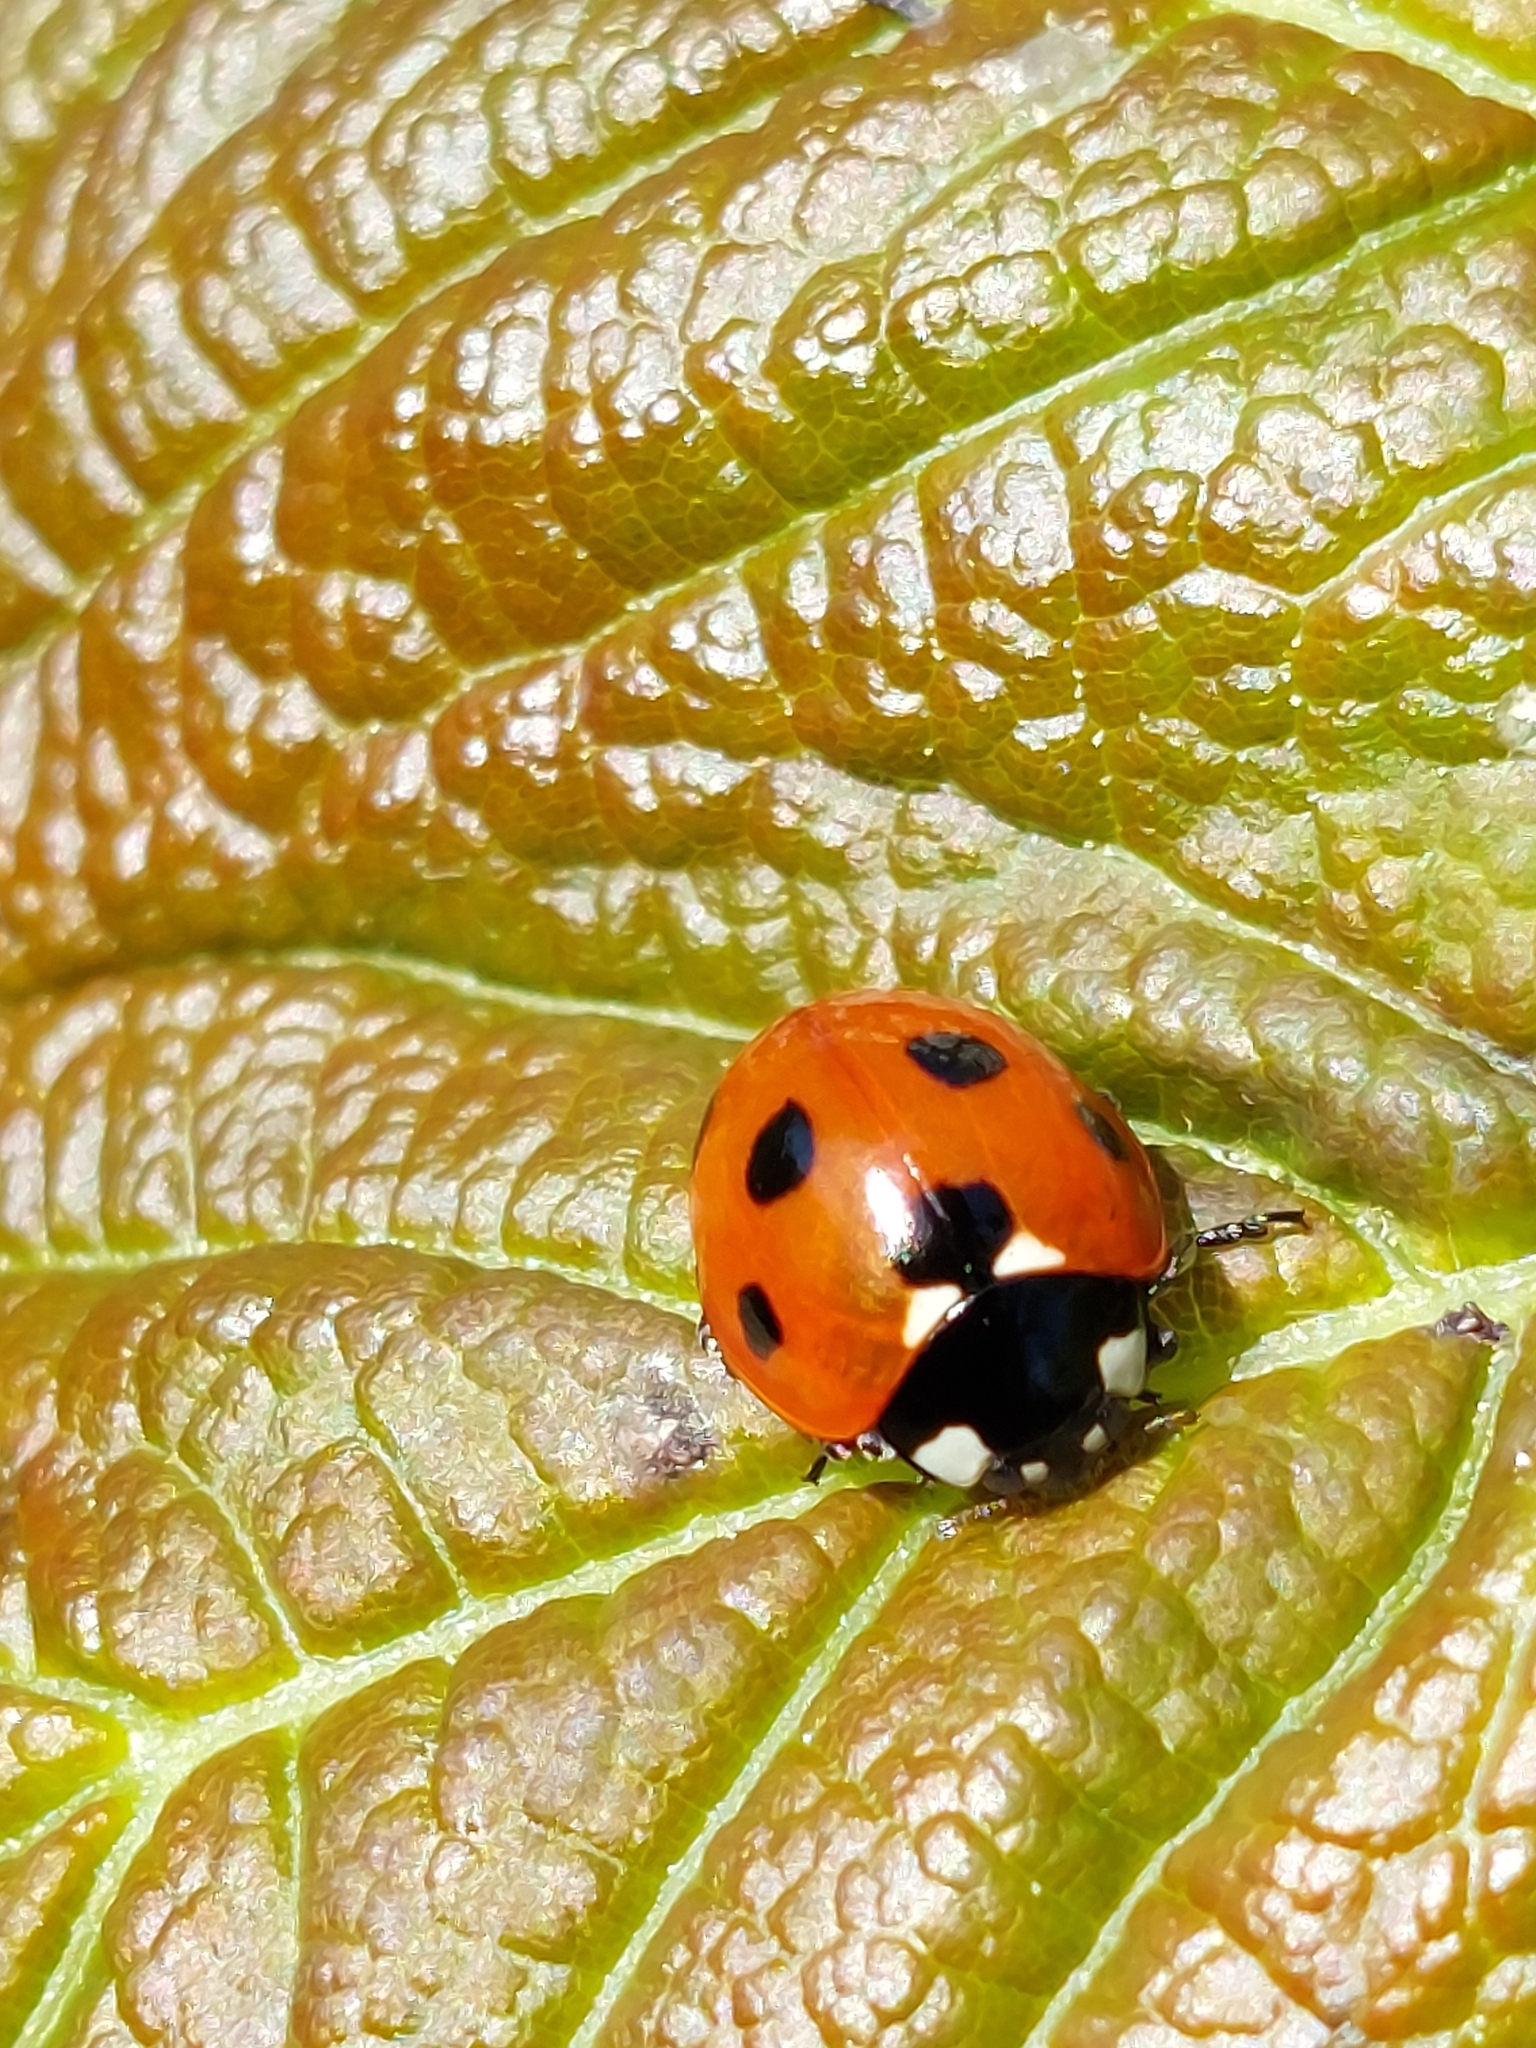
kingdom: Animalia
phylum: Arthropoda
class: Insecta
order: Coleoptera
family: Coccinellidae
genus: Coccinella
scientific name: Coccinella septempunctata
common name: Sevenspotted lady beetle
